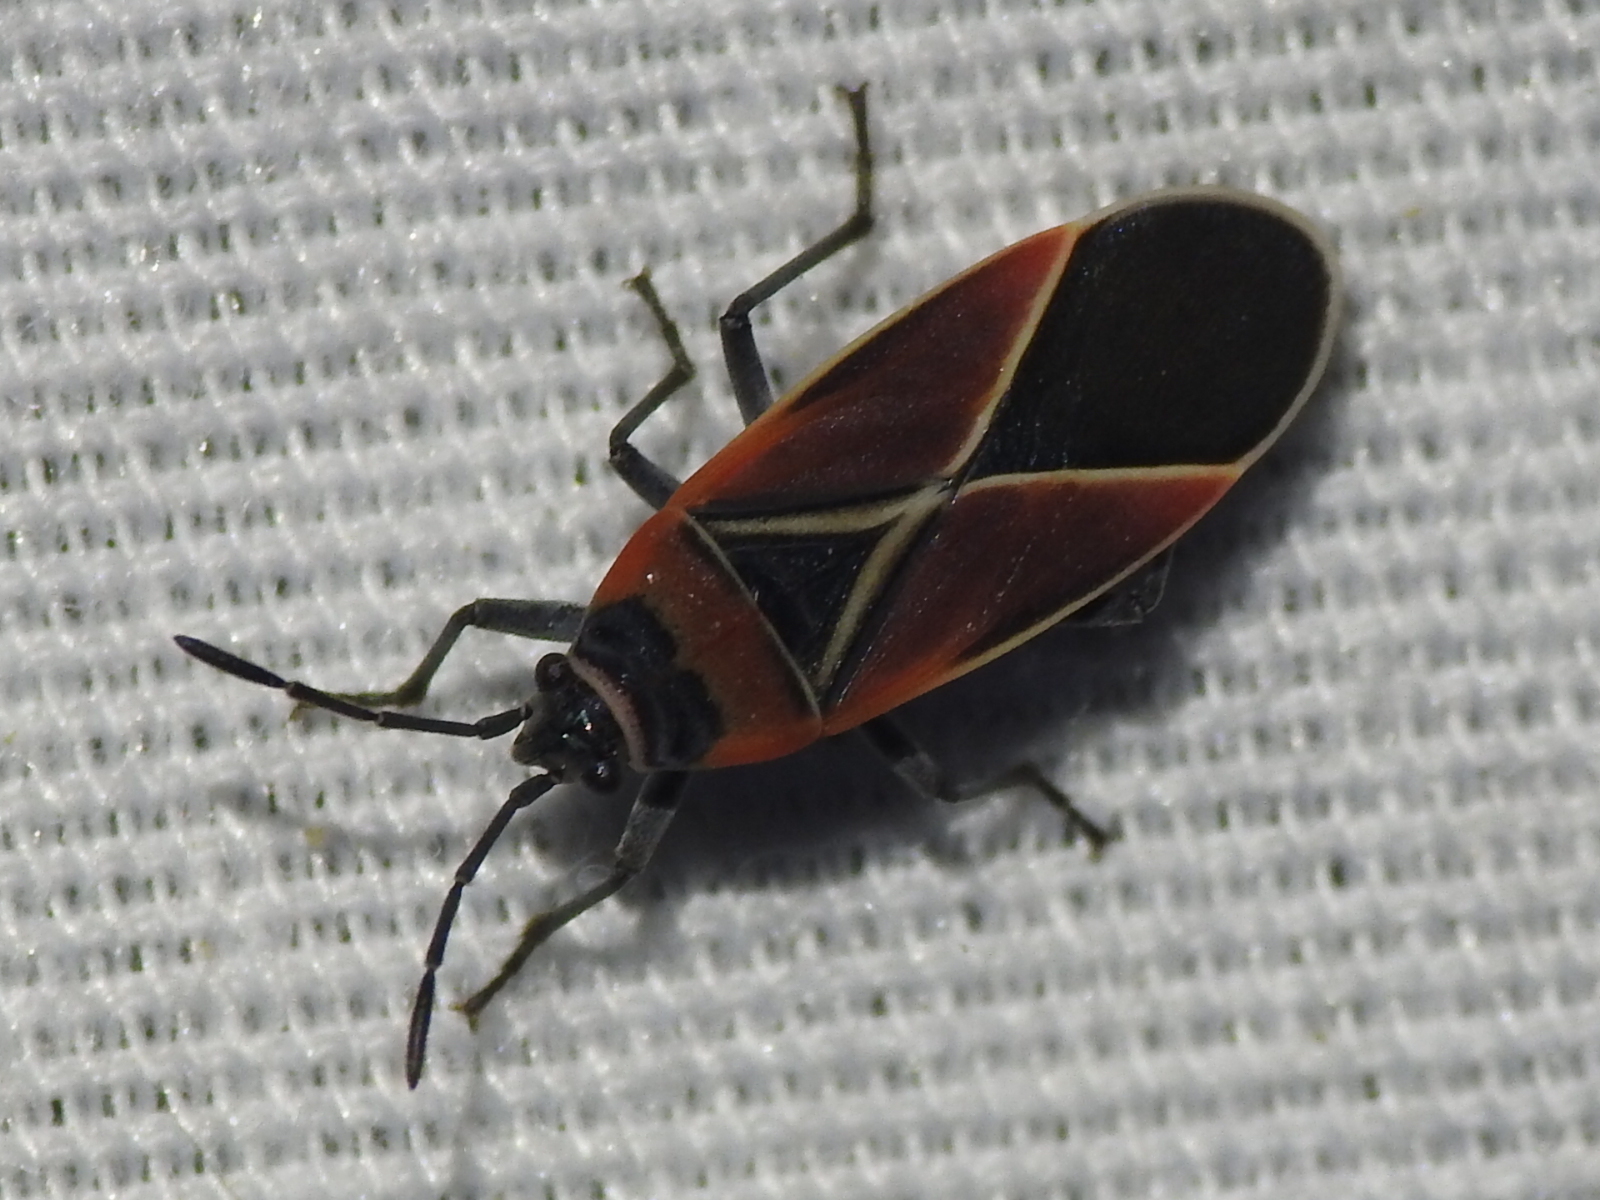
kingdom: Animalia
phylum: Arthropoda
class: Insecta
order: Hemiptera
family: Lygaeidae
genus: Neacoryphus
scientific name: Neacoryphus bicrucis
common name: Lygaeid bug
